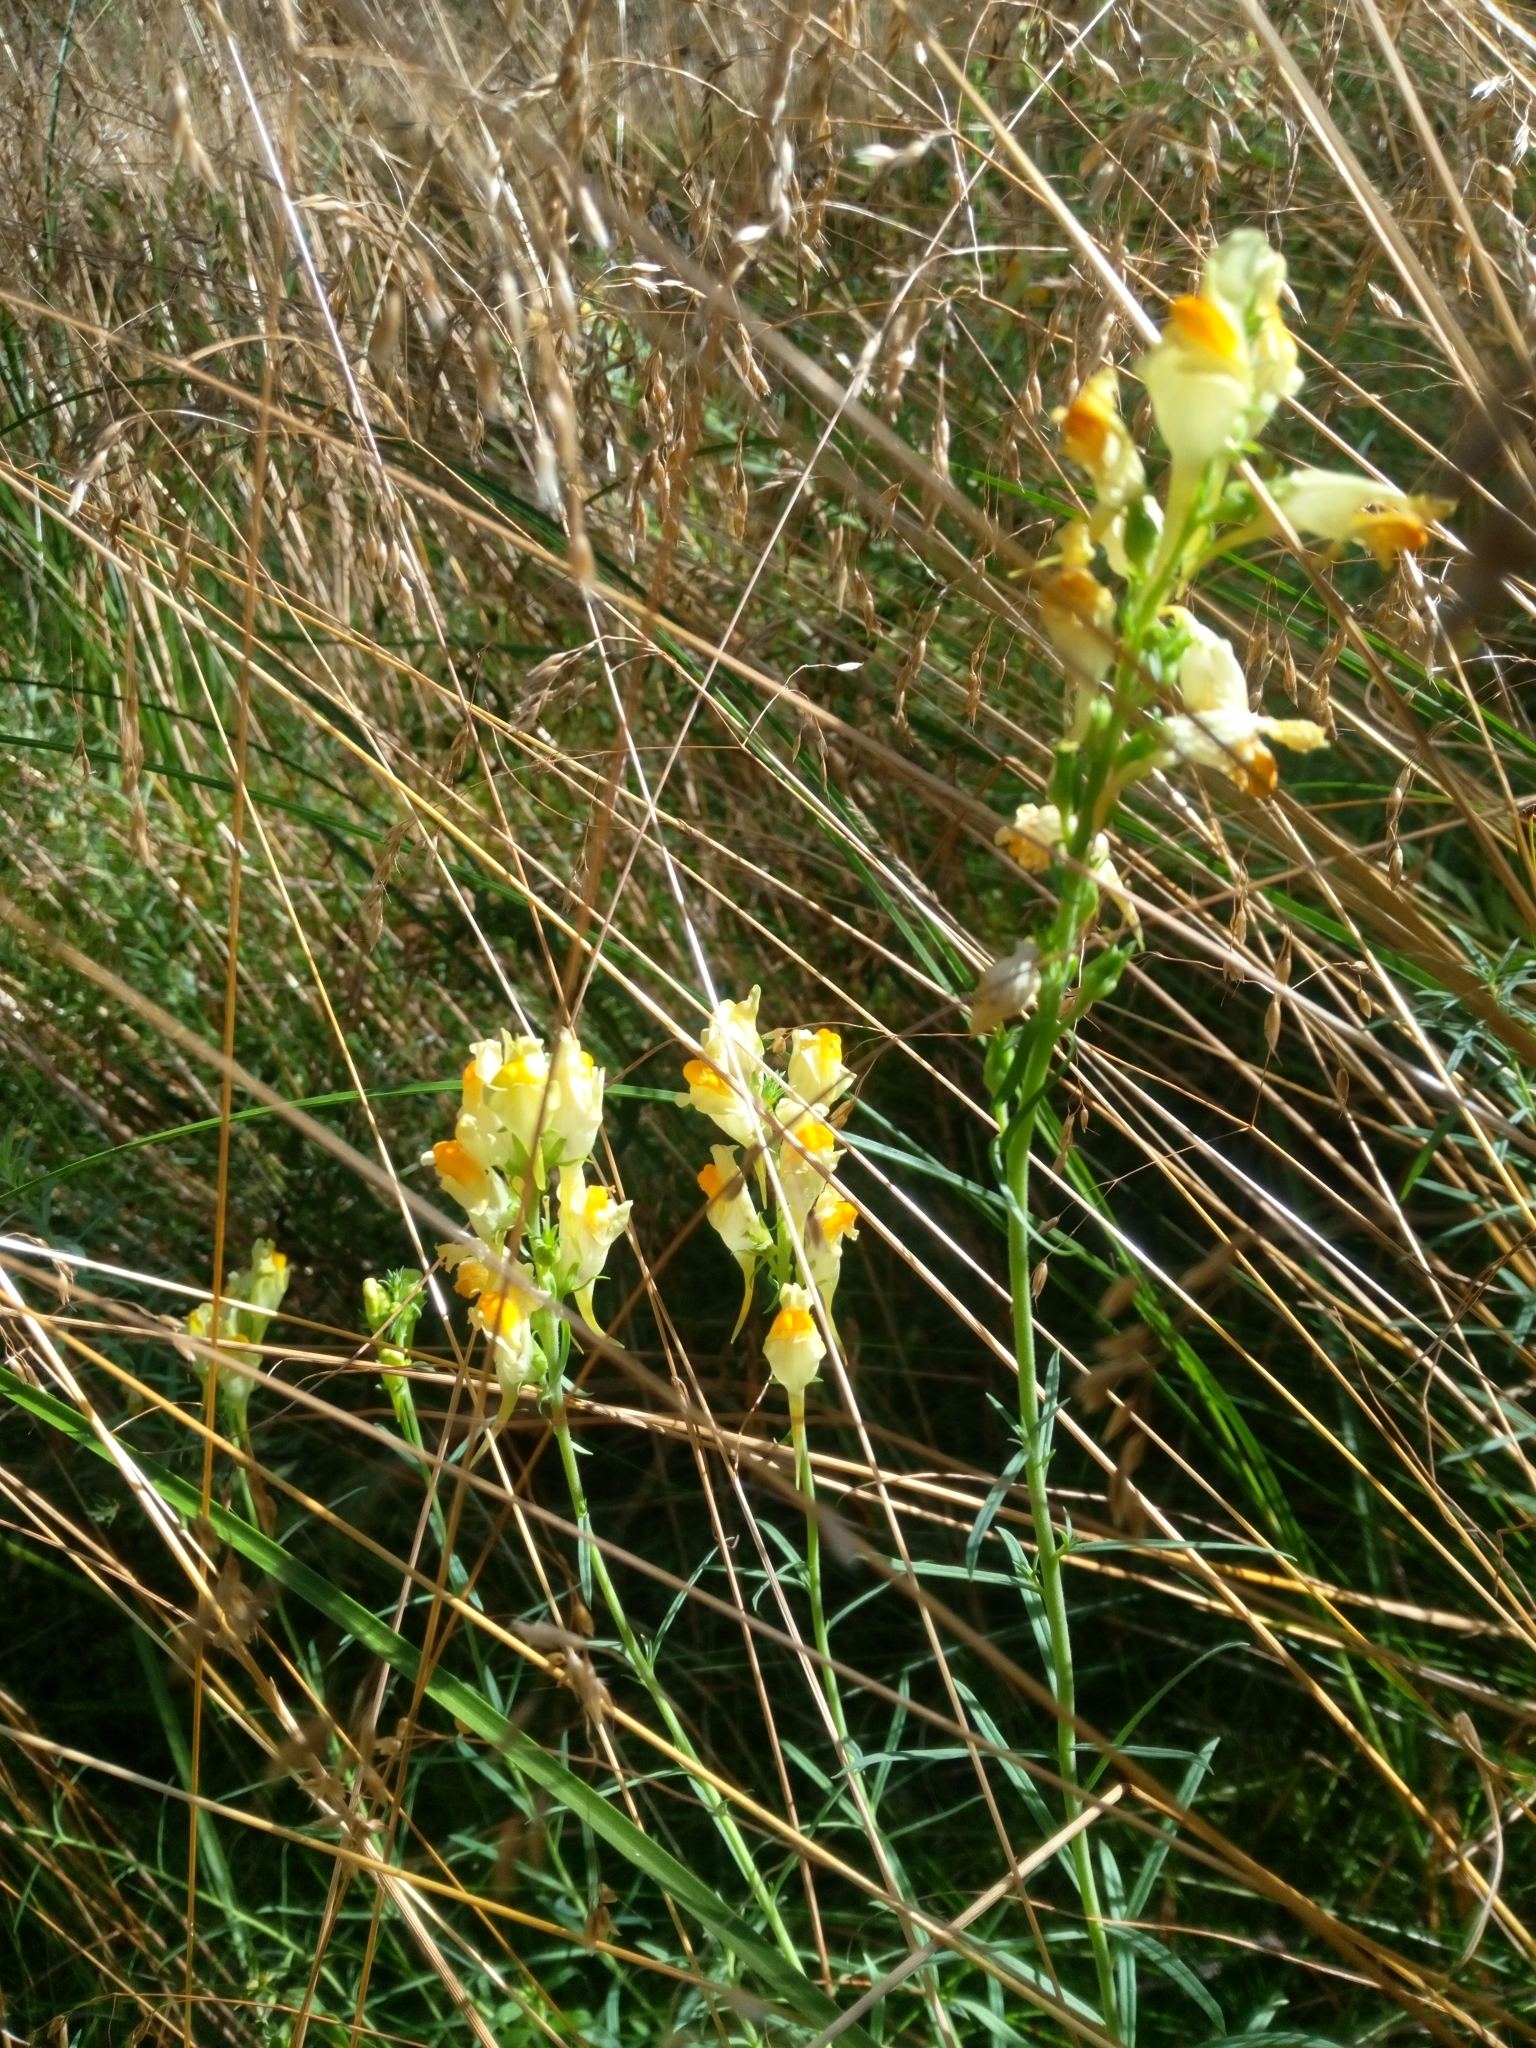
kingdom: Plantae
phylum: Tracheophyta
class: Magnoliopsida
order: Lamiales
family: Plantaginaceae
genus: Linaria
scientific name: Linaria vulgaris
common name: Butter and eggs
